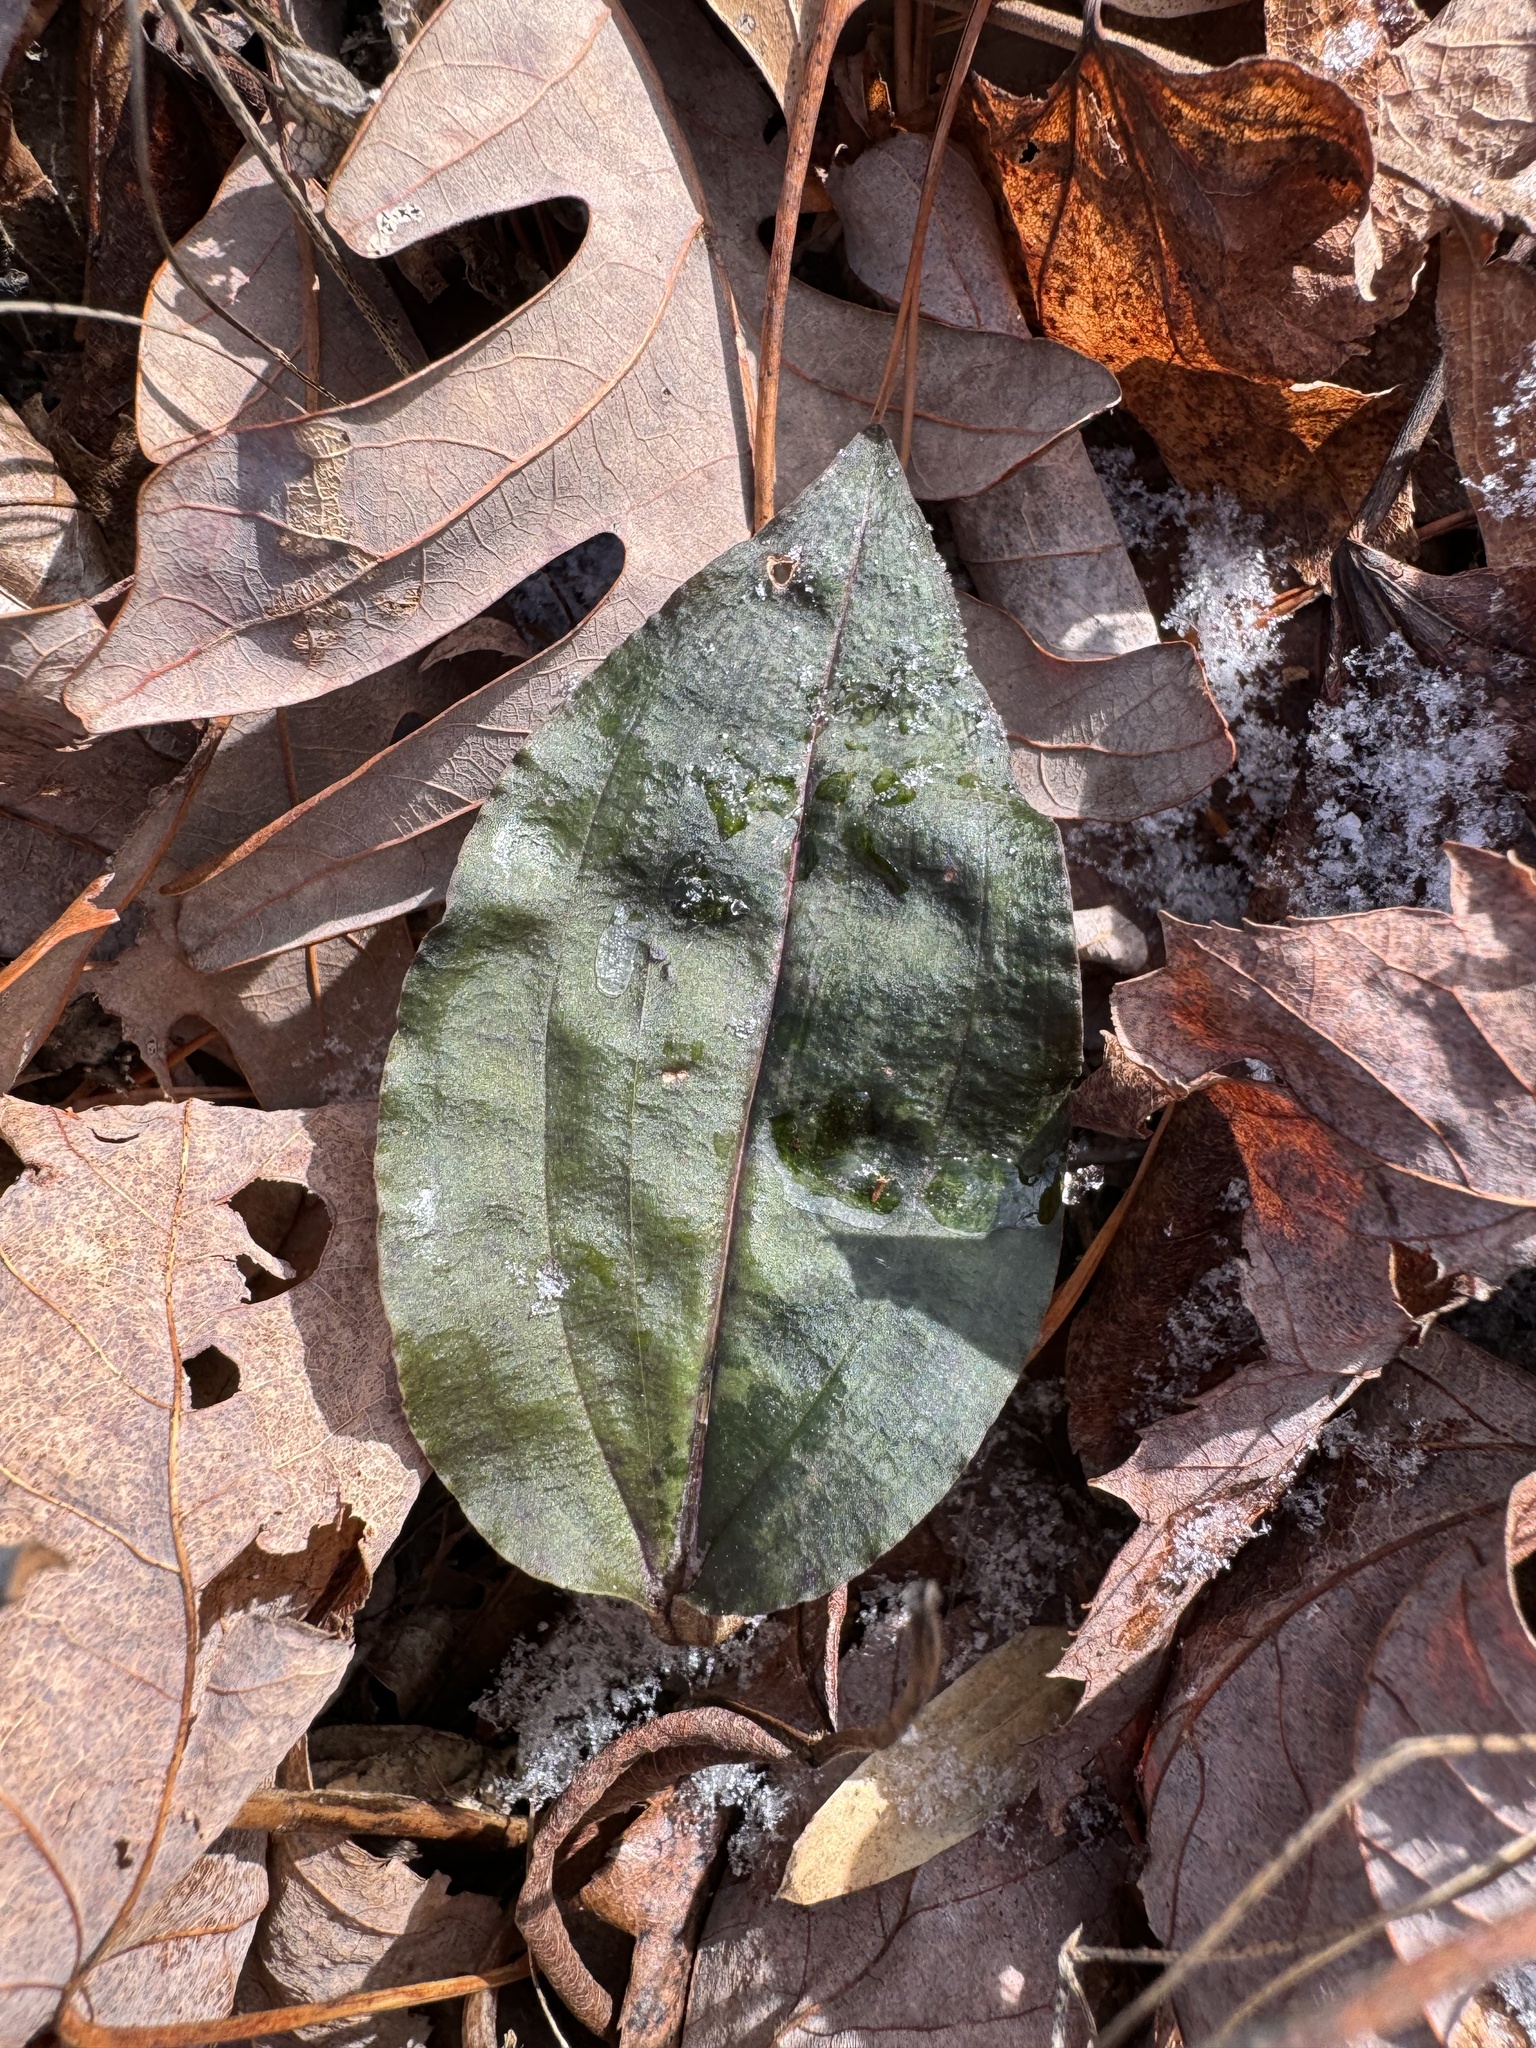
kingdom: Plantae
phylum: Tracheophyta
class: Liliopsida
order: Asparagales
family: Orchidaceae
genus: Tipularia
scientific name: Tipularia discolor
